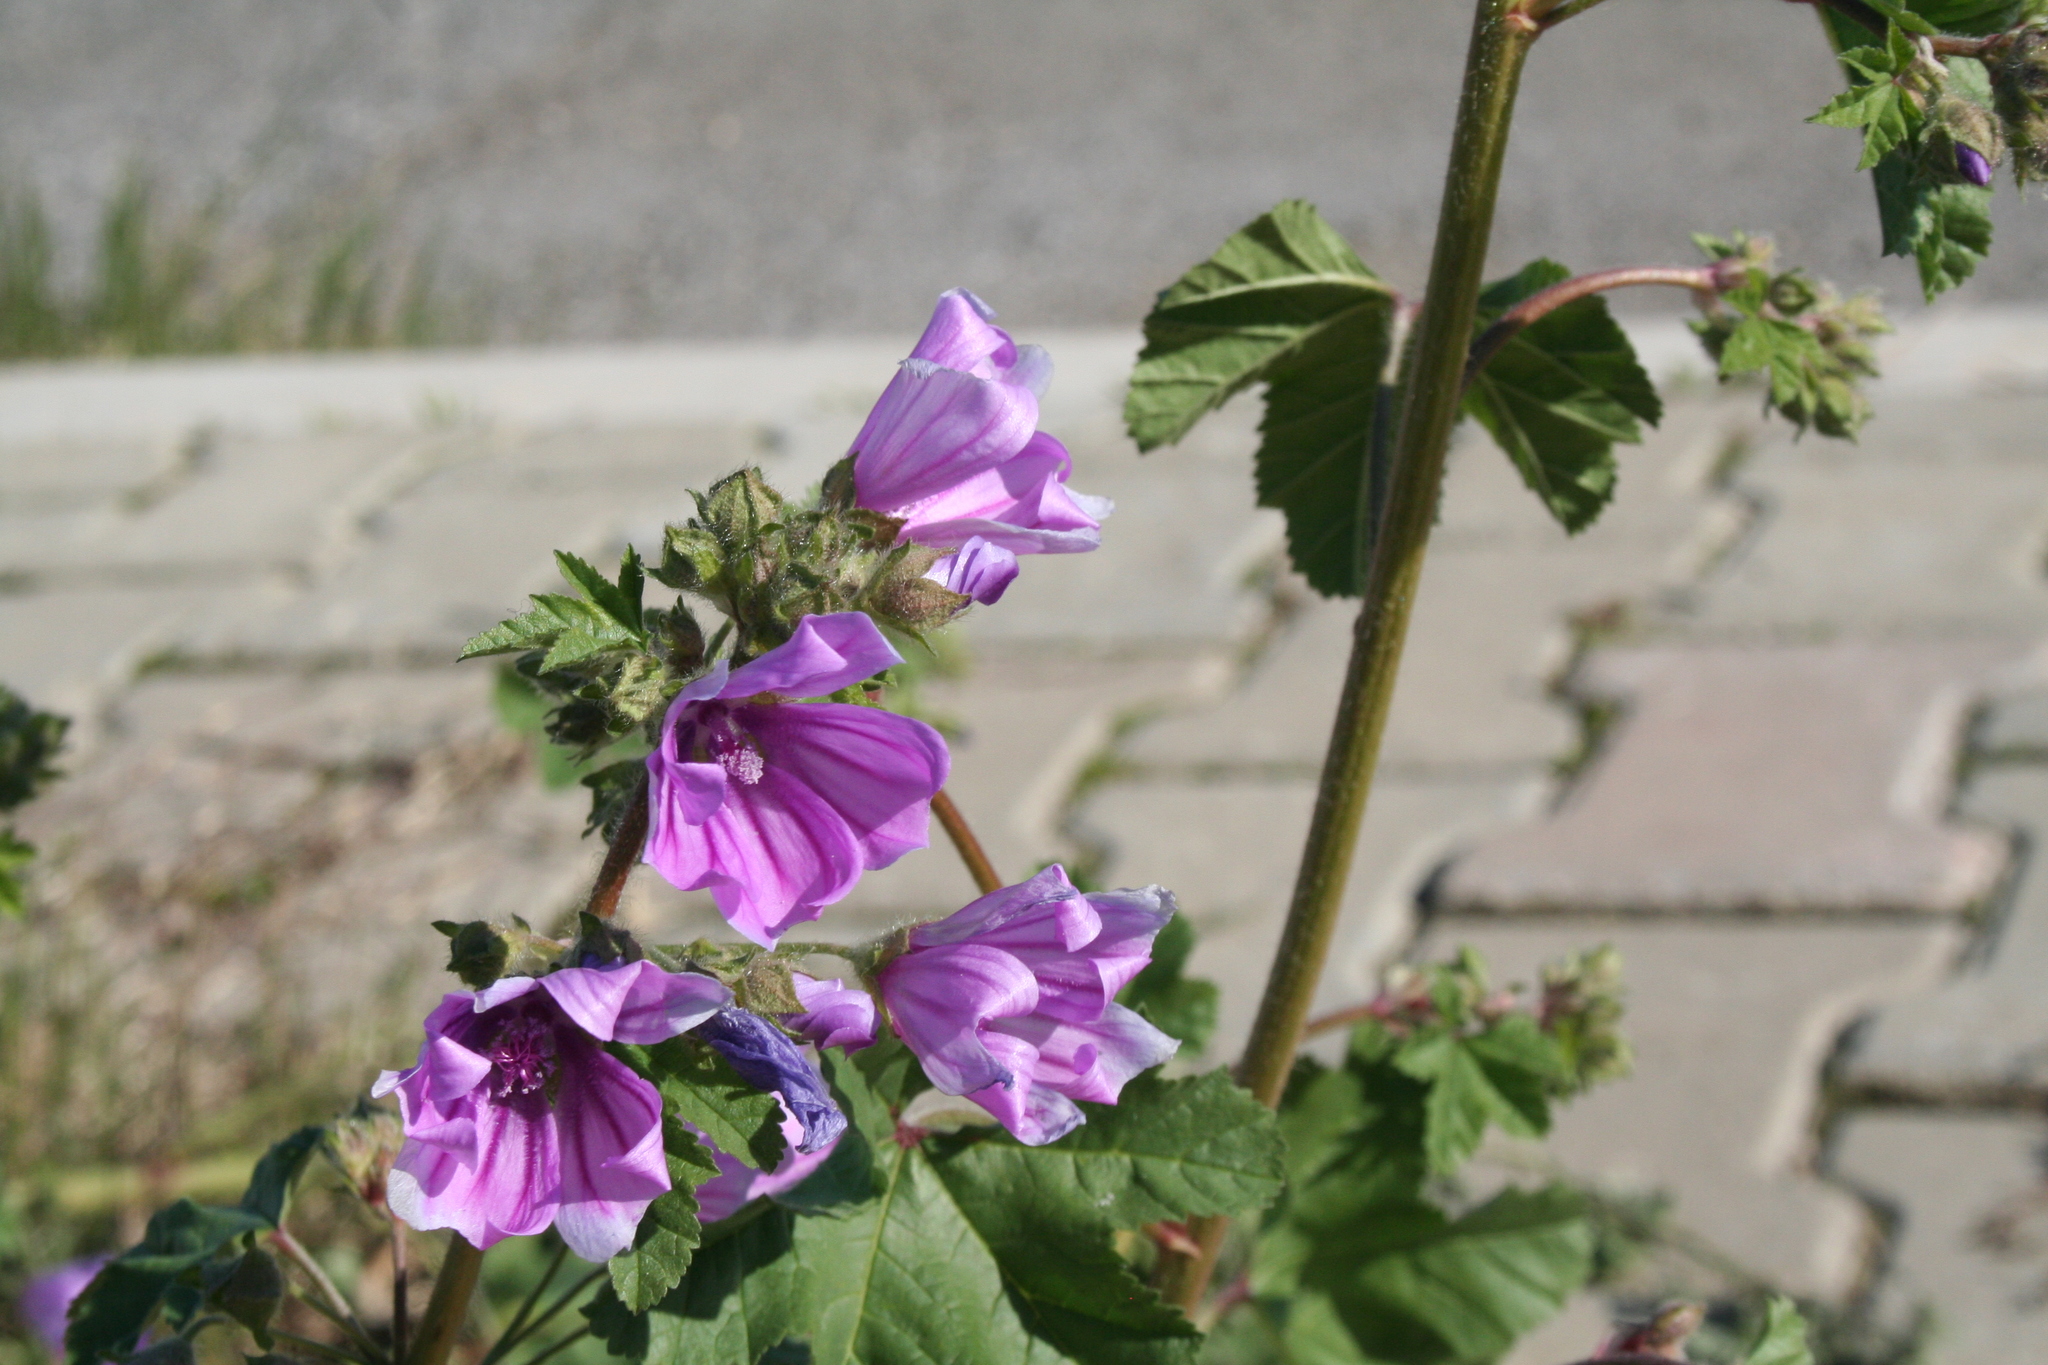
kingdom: Plantae
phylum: Tracheophyta
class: Magnoliopsida
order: Malvales
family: Malvaceae
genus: Malva
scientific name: Malva sylvestris
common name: Common mallow
